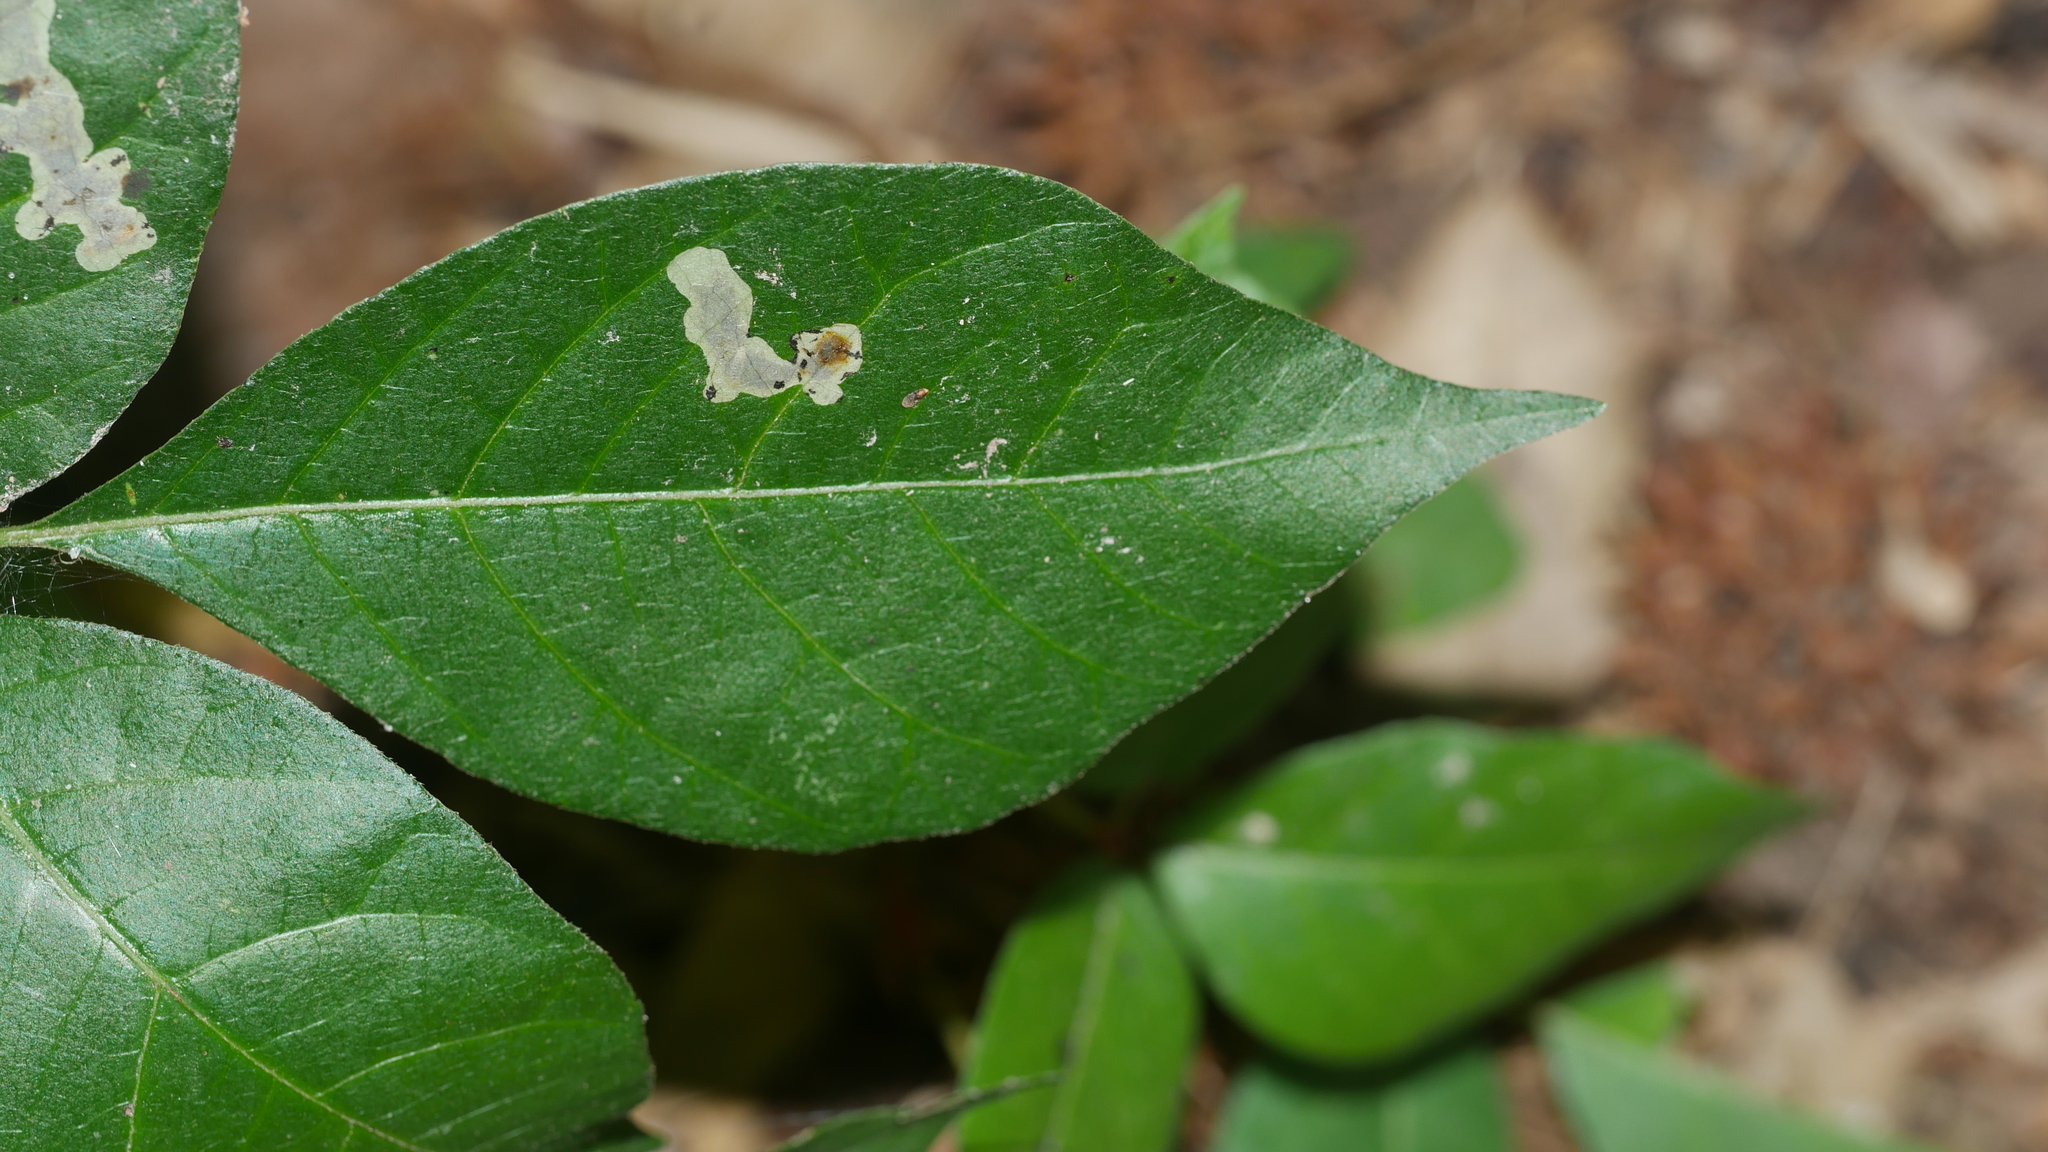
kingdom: Animalia
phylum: Arthropoda
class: Insecta
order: Lepidoptera
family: Gracillariidae
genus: Cameraria
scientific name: Cameraria guttifinitella
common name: Poison ivy leaf-miner moth
